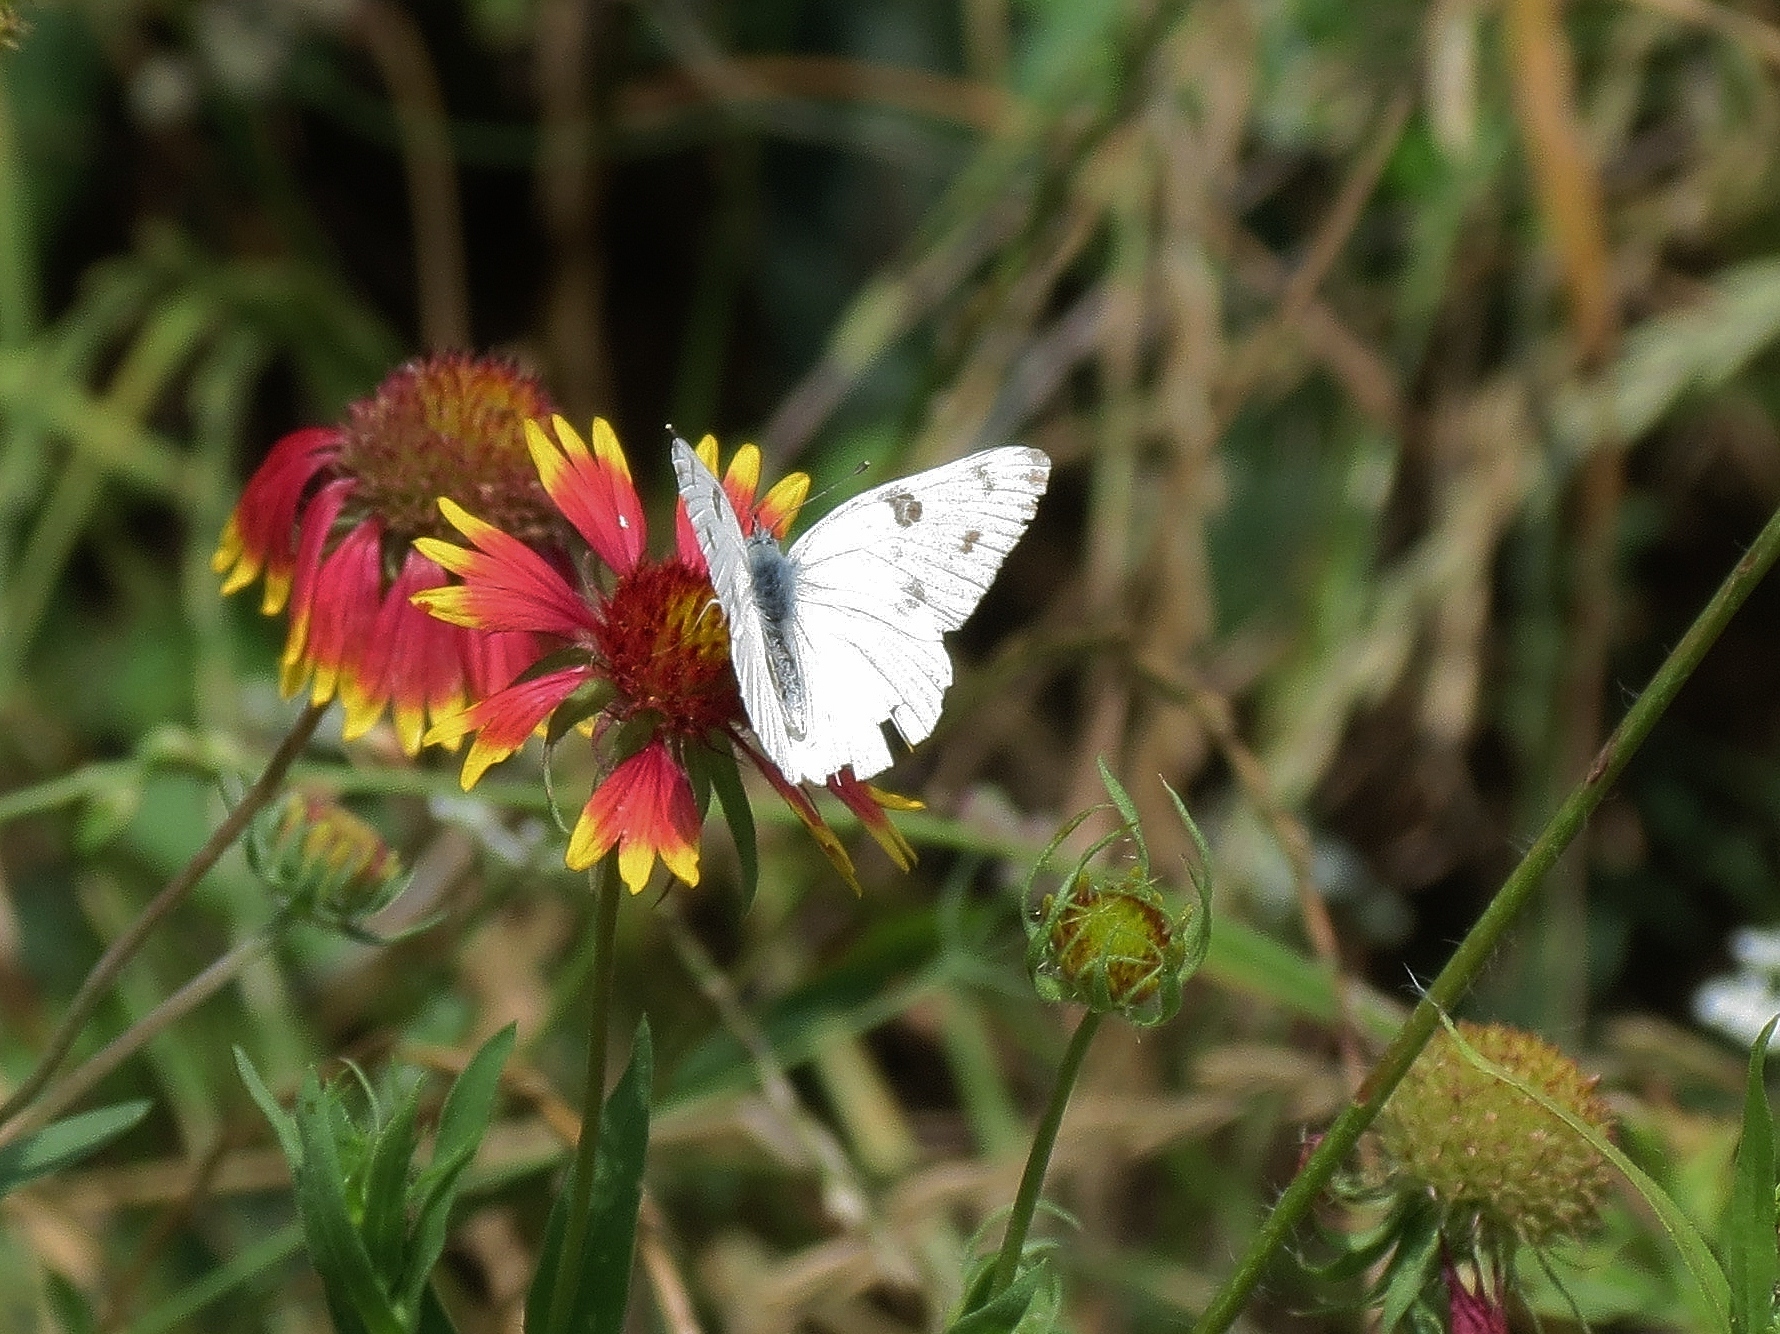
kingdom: Animalia
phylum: Arthropoda
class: Insecta
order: Lepidoptera
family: Pieridae
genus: Pontia
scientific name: Pontia protodice
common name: Checkered white
